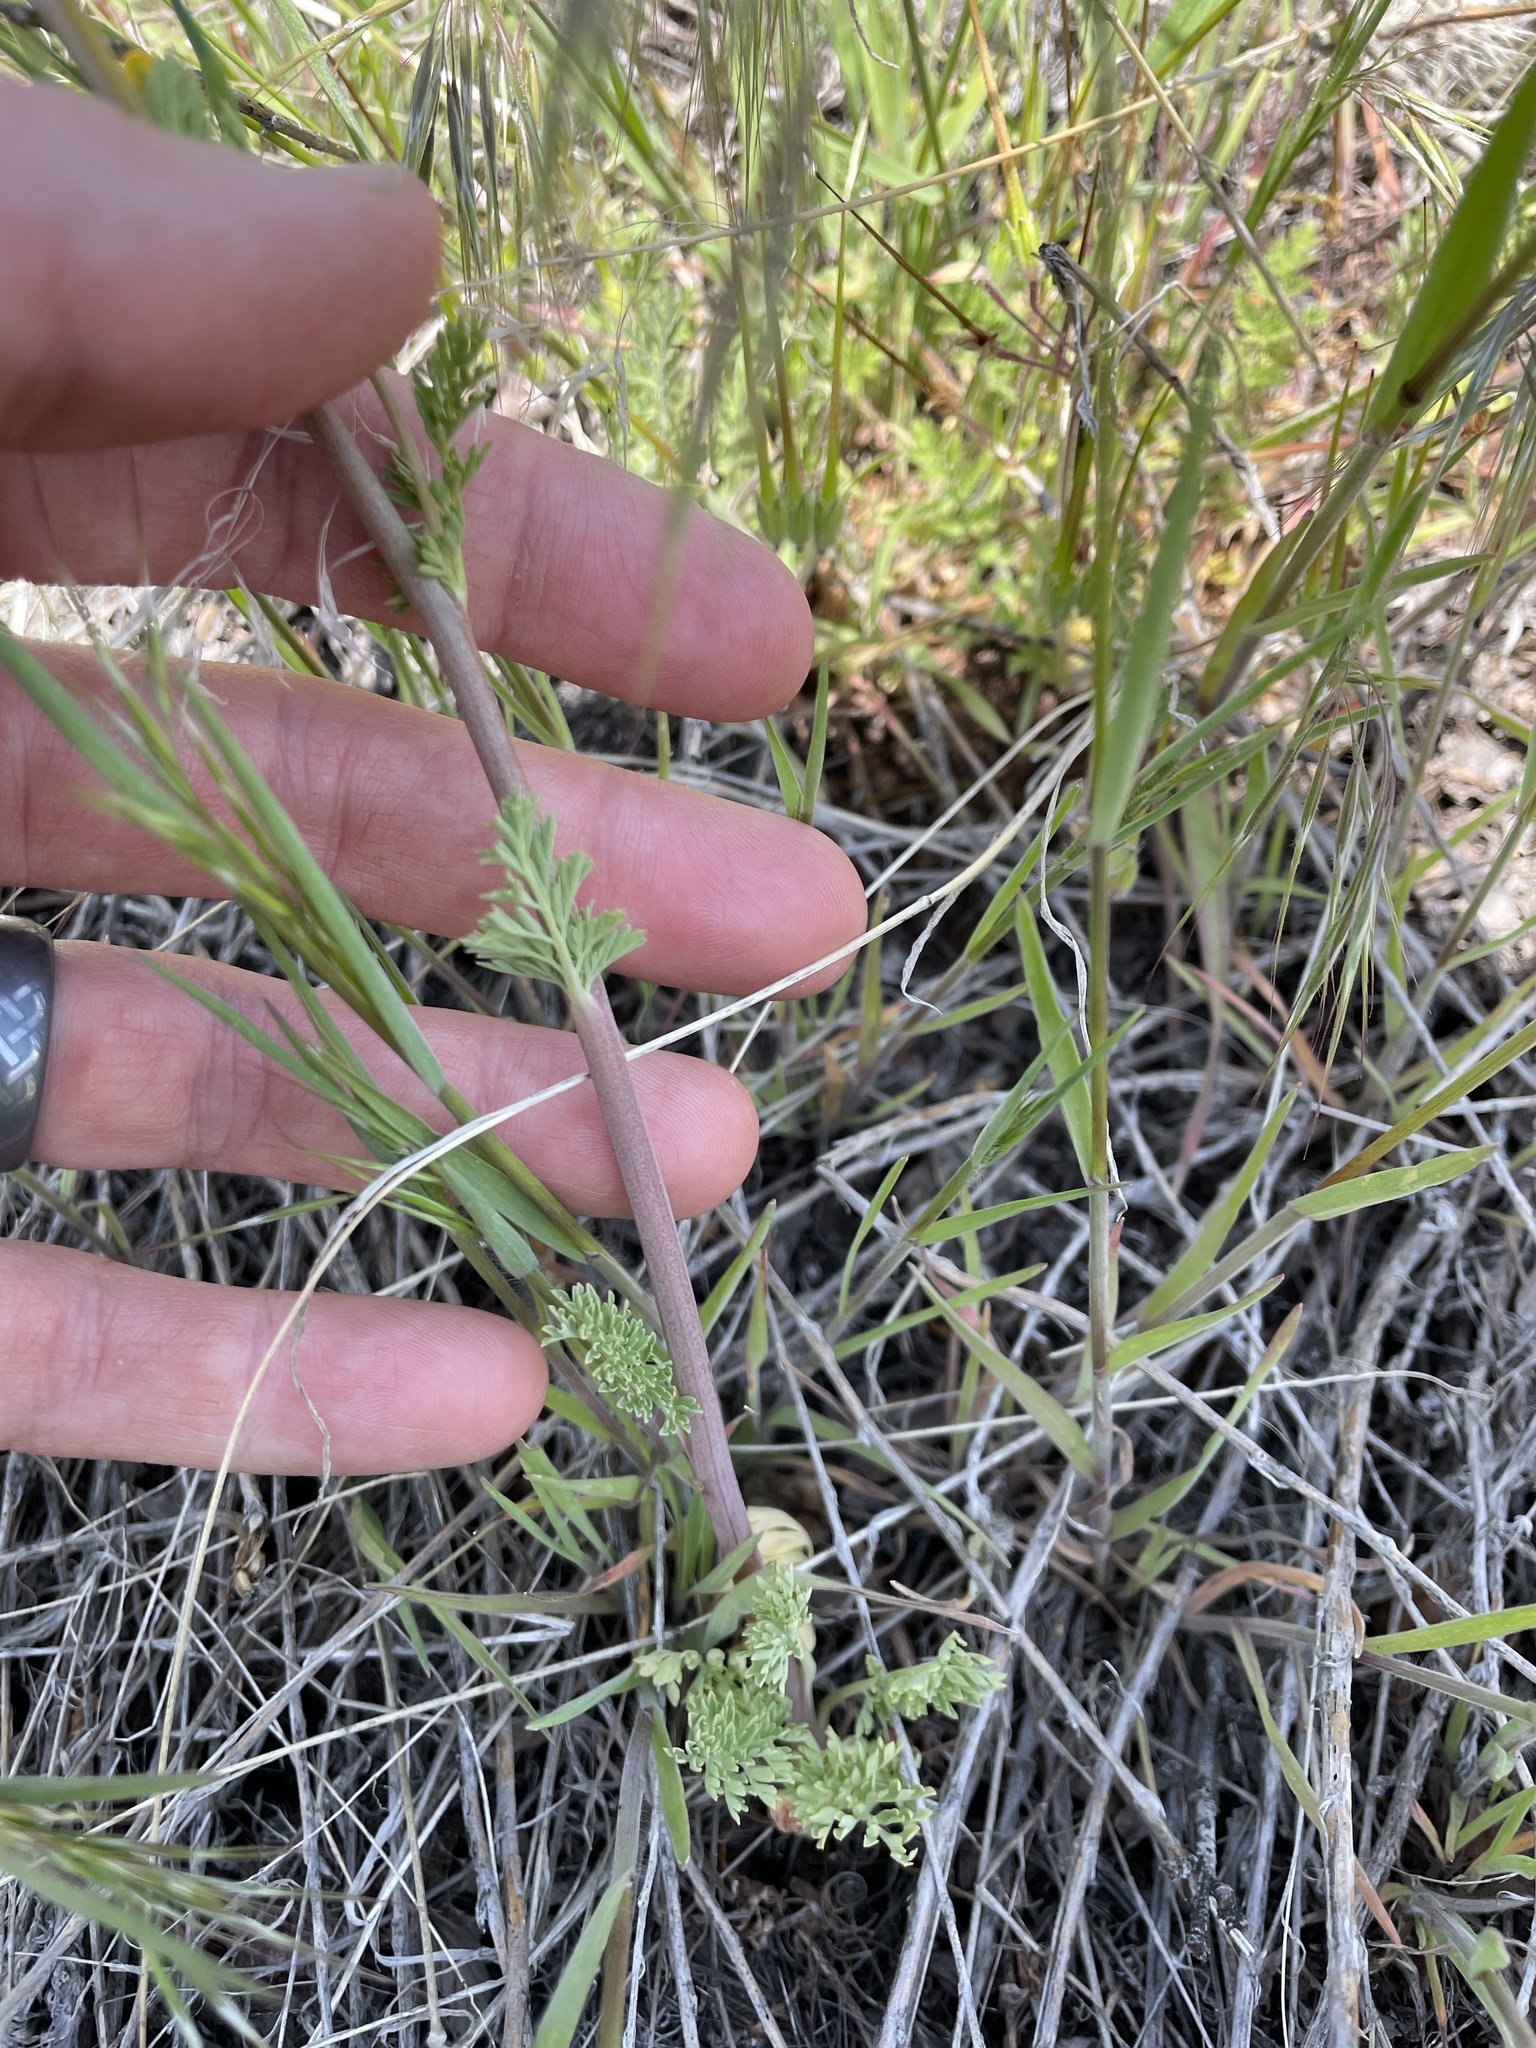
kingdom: Plantae
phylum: Tracheophyta
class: Magnoliopsida
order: Ranunculales
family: Papaveraceae
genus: Corydalis
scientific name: Corydalis aurea
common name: Golden corydalis
